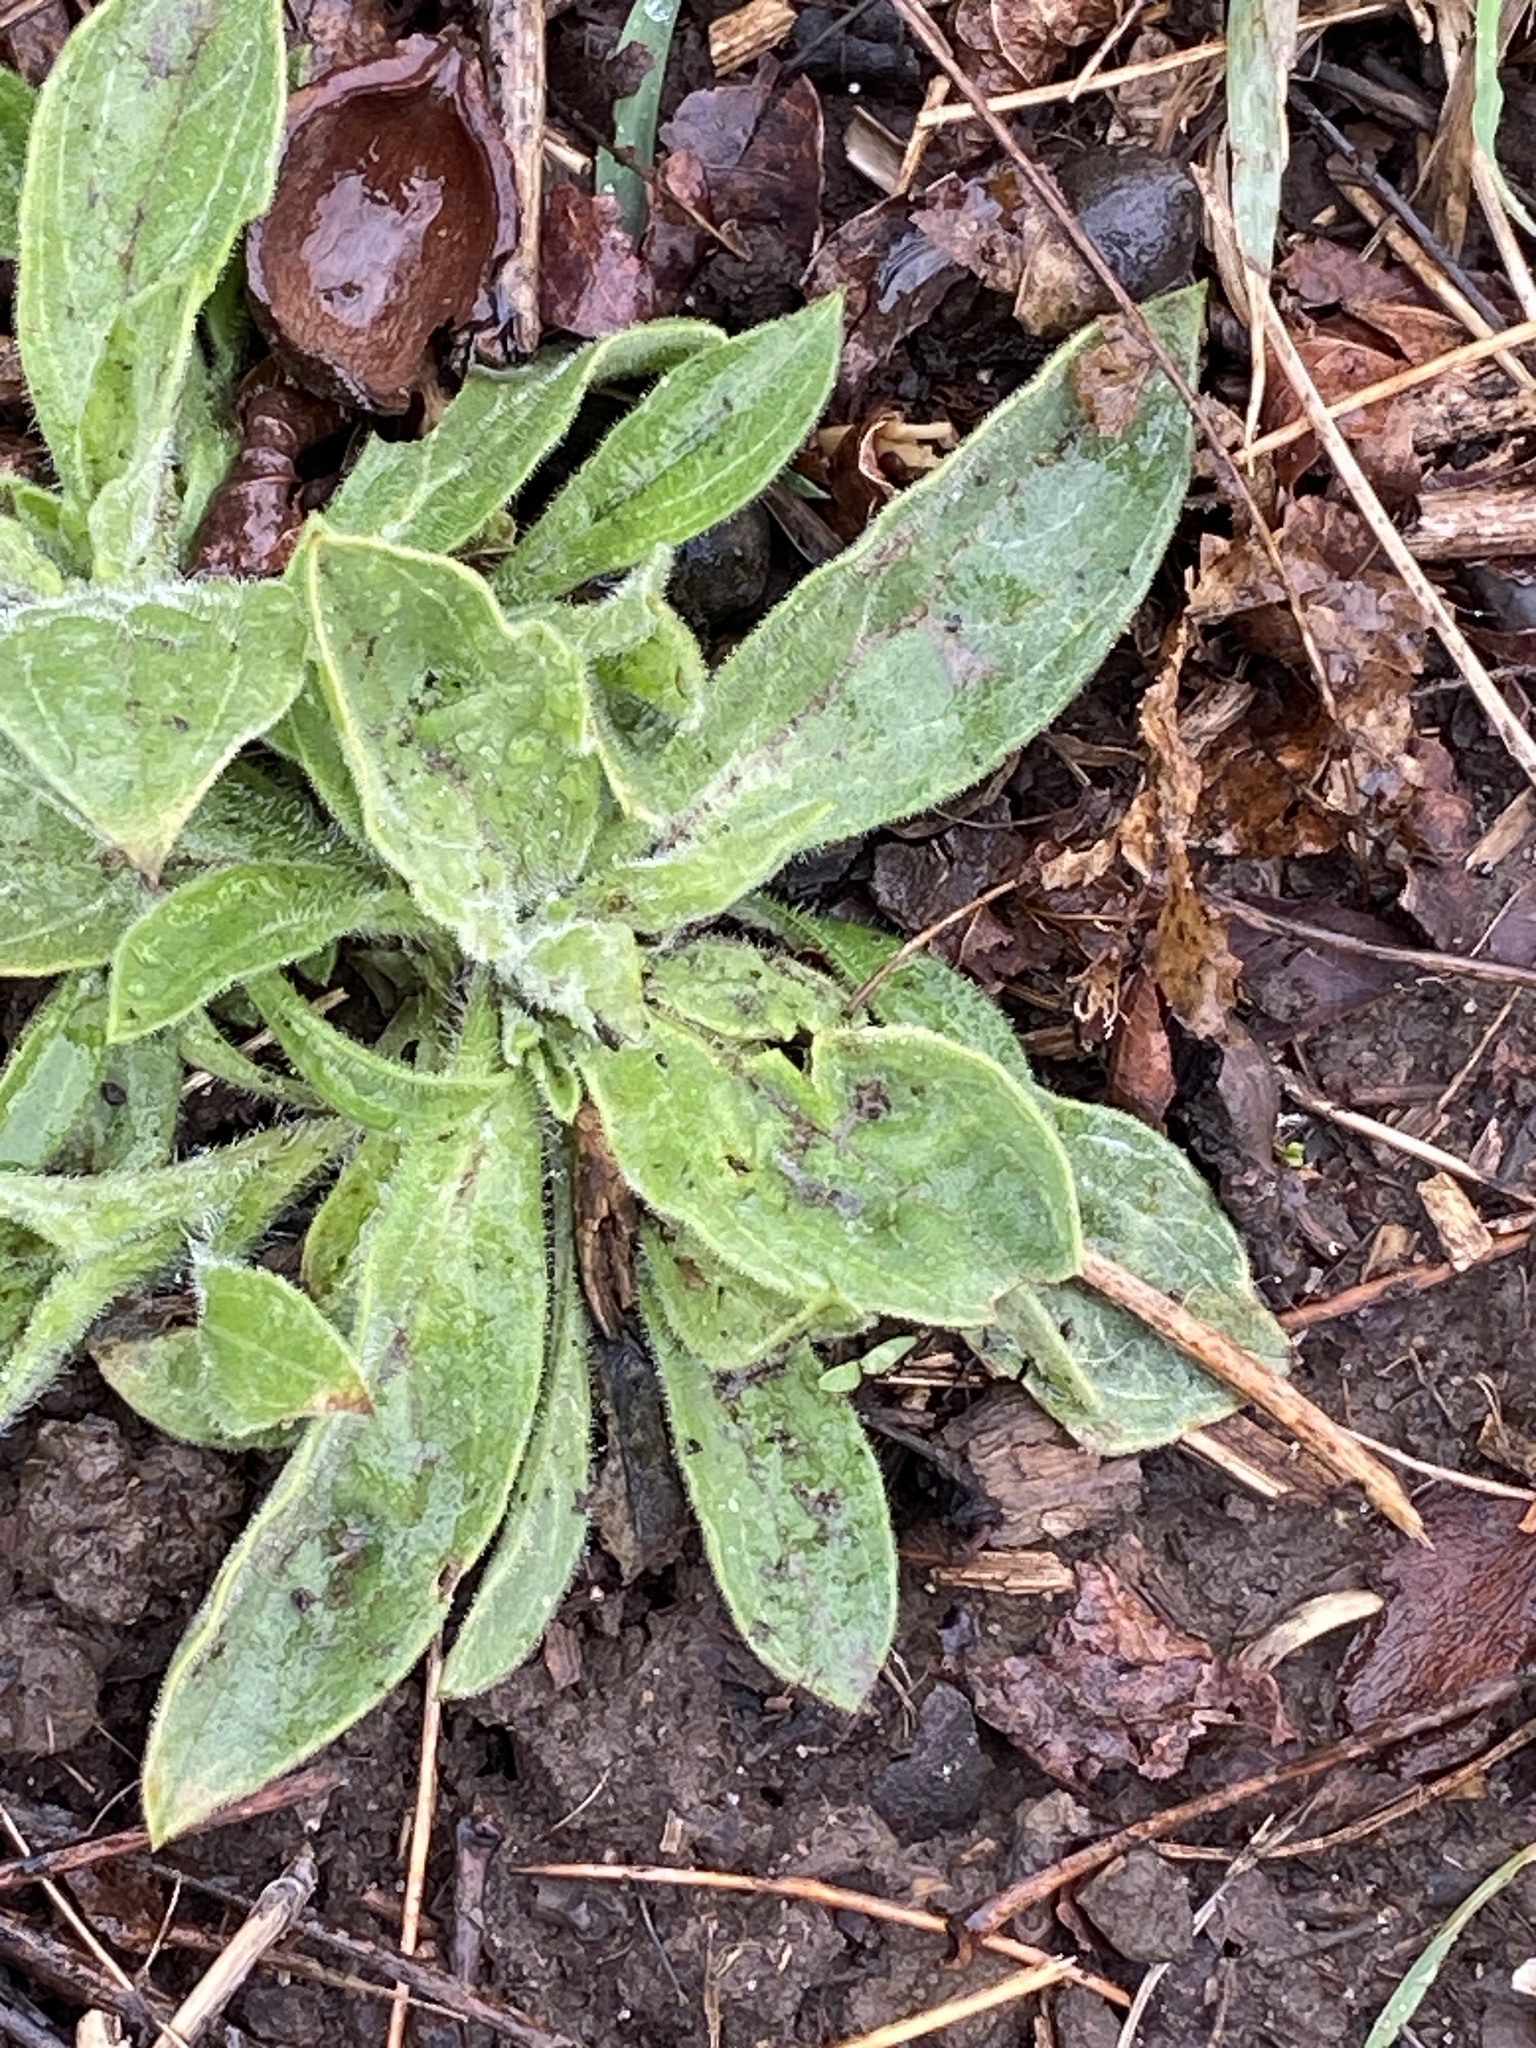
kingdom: Plantae
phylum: Tracheophyta
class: Magnoliopsida
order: Caryophyllales
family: Caryophyllaceae
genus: Silene
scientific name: Silene latifolia
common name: White campion
